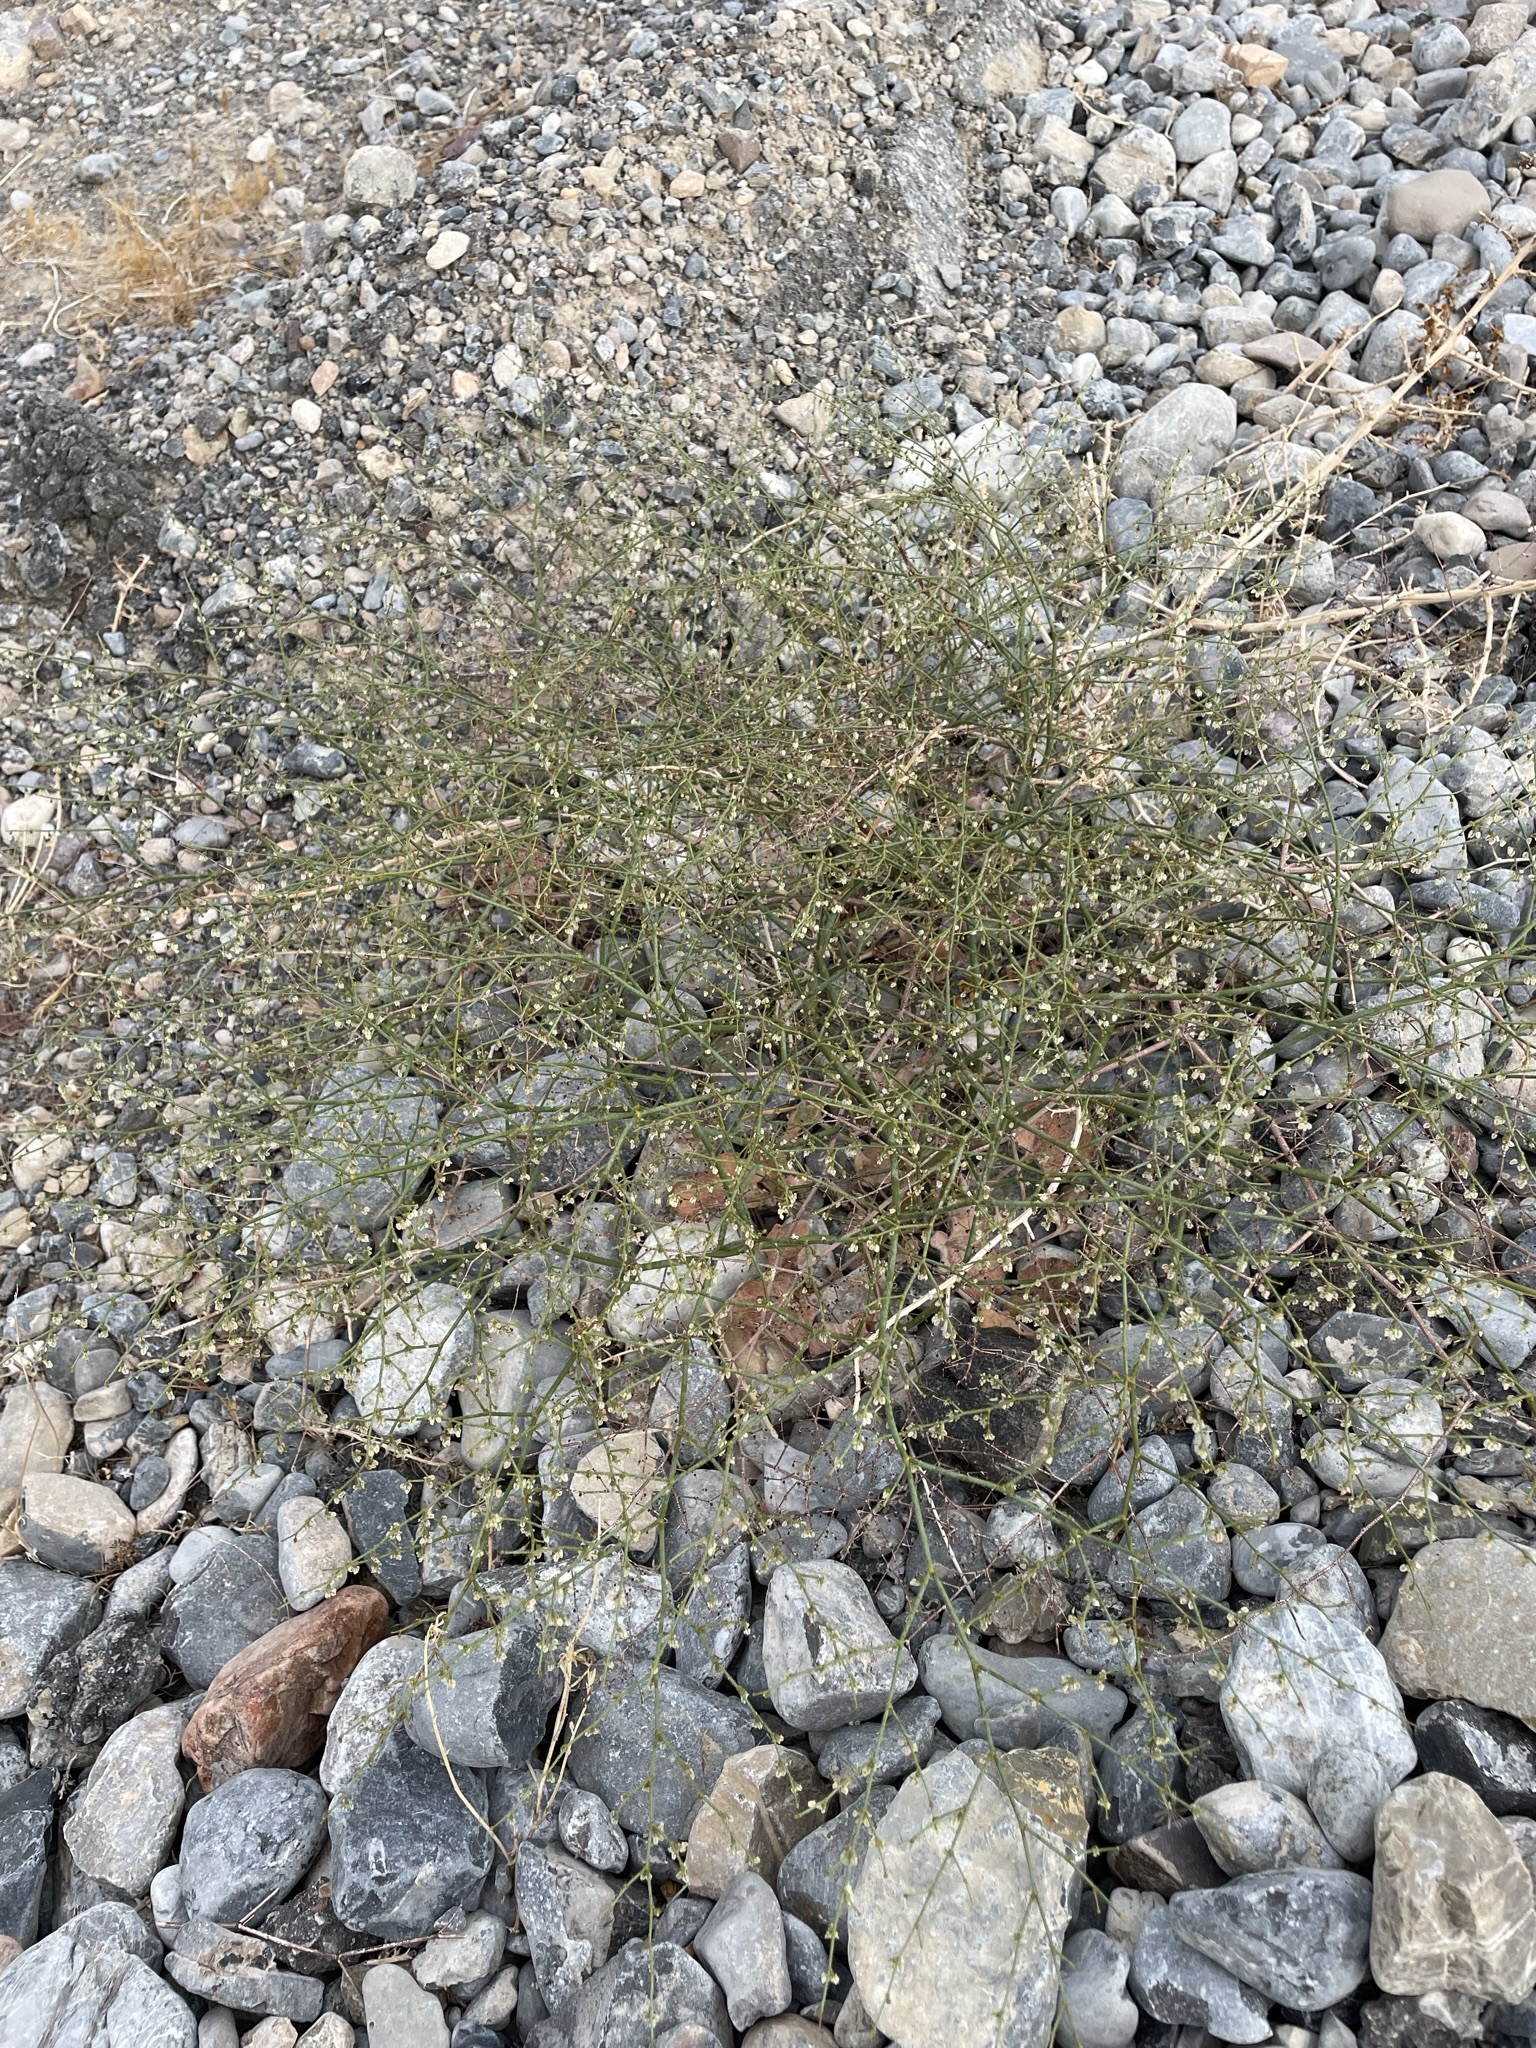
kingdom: Plantae
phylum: Tracheophyta
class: Magnoliopsida
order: Caryophyllales
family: Polygonaceae
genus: Eriogonum
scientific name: Eriogonum brachypodum
